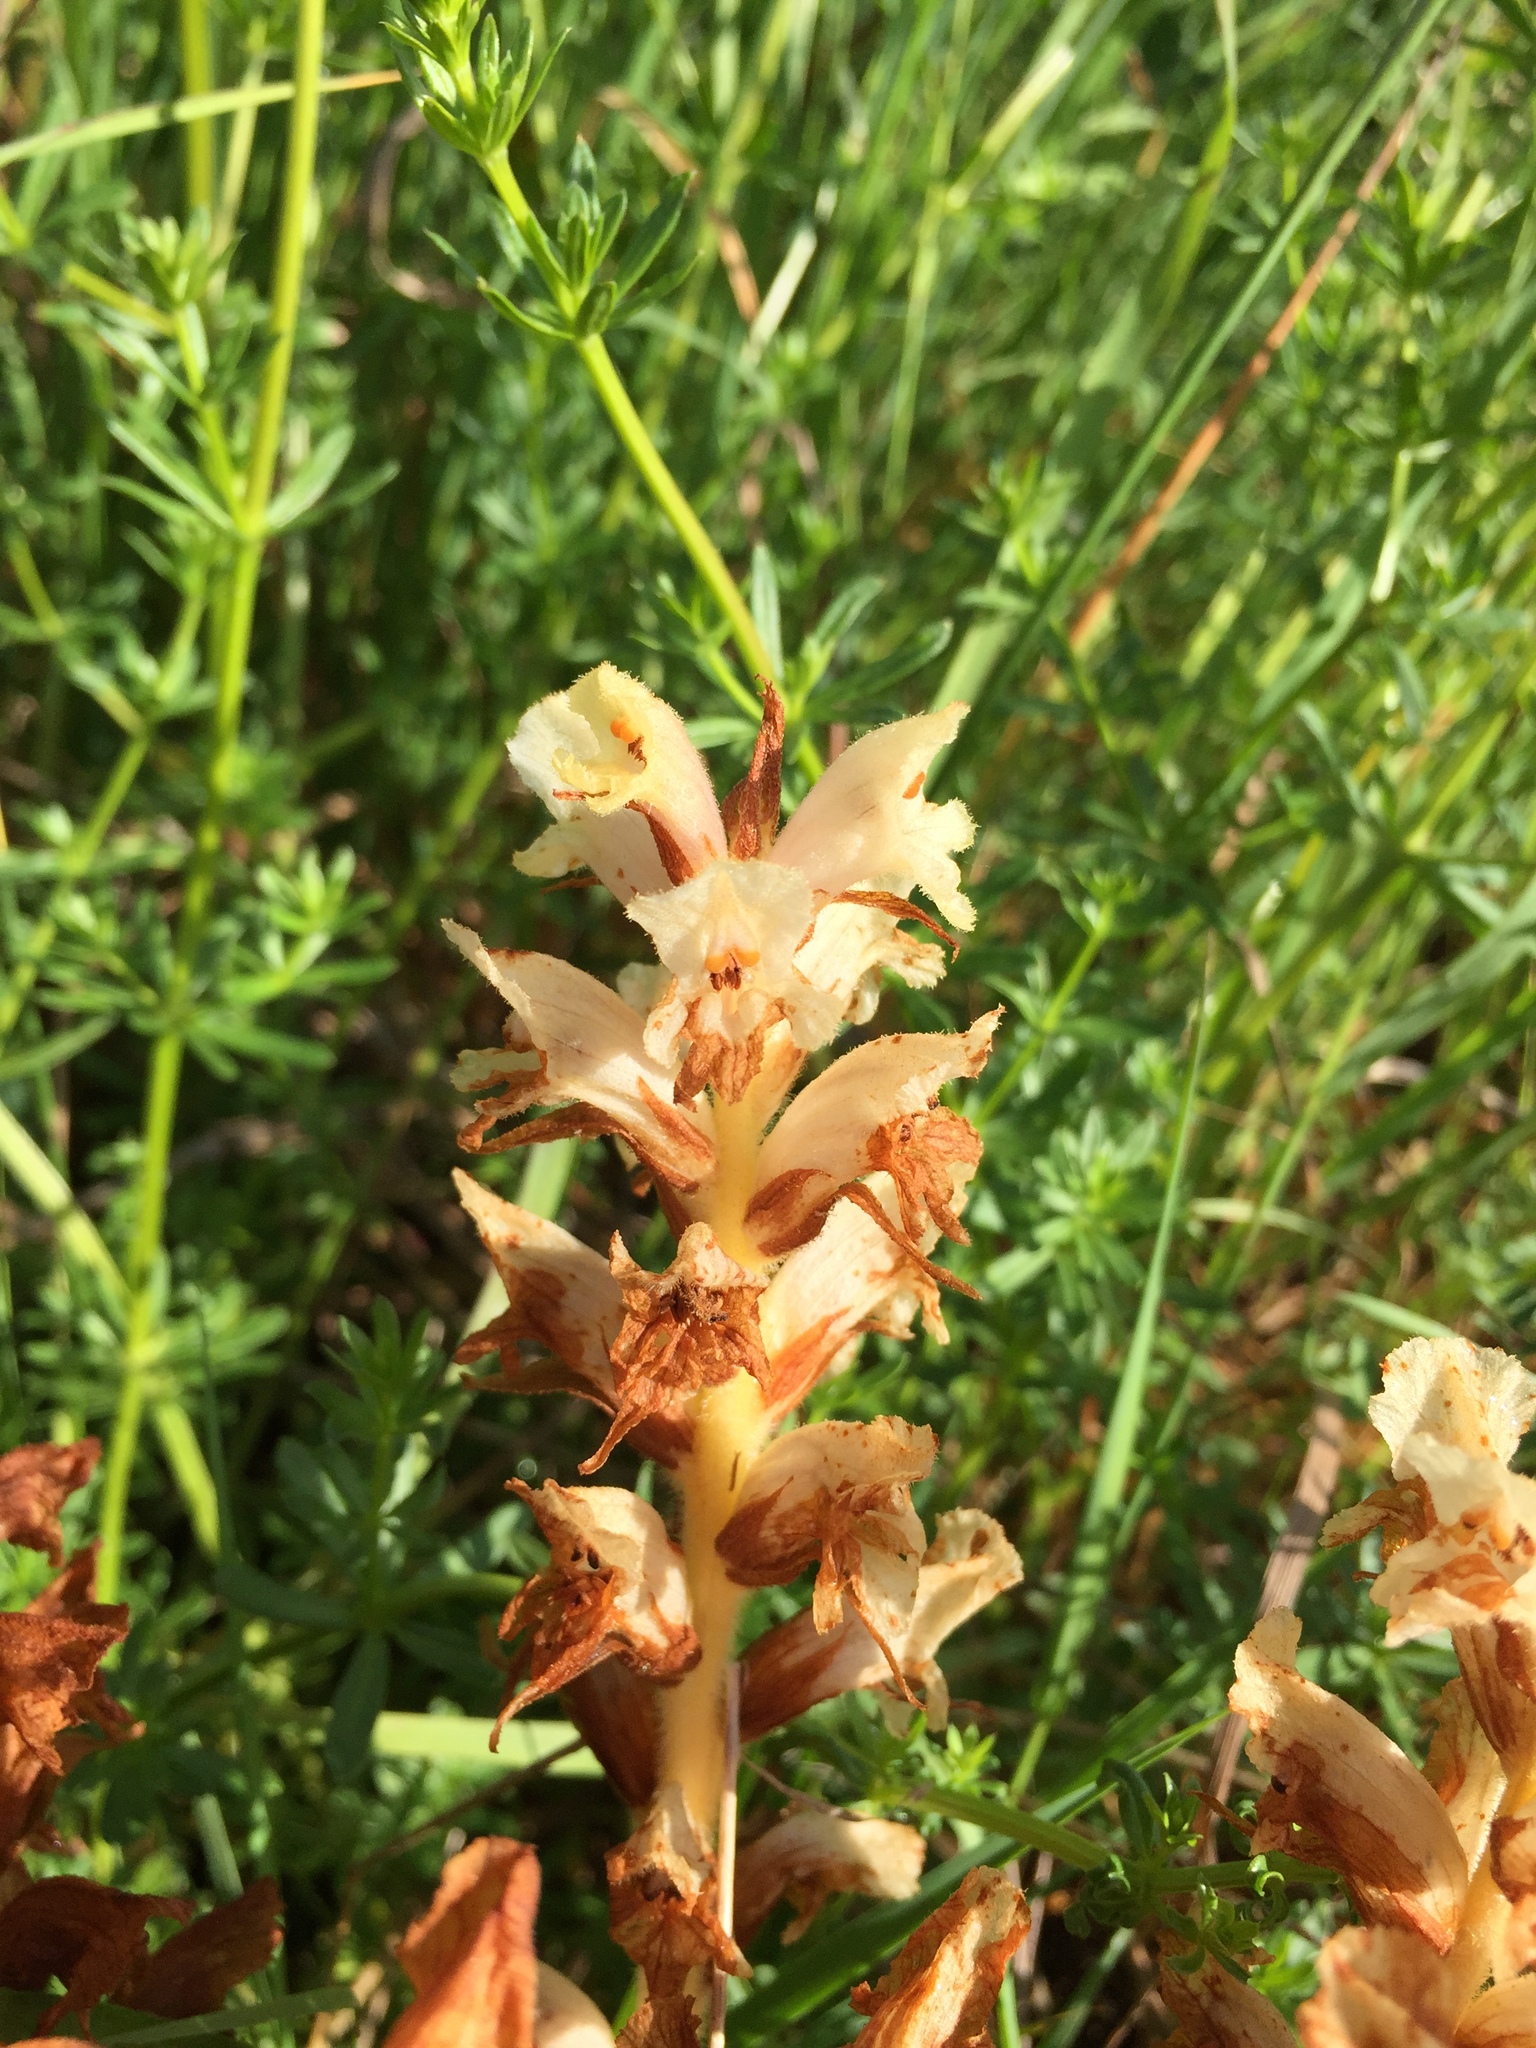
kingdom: Plantae
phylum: Tracheophyta
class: Magnoliopsida
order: Lamiales
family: Orobanchaceae
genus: Orobanche
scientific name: Orobanche caryophyllacea
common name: Bedstraw broomrape
